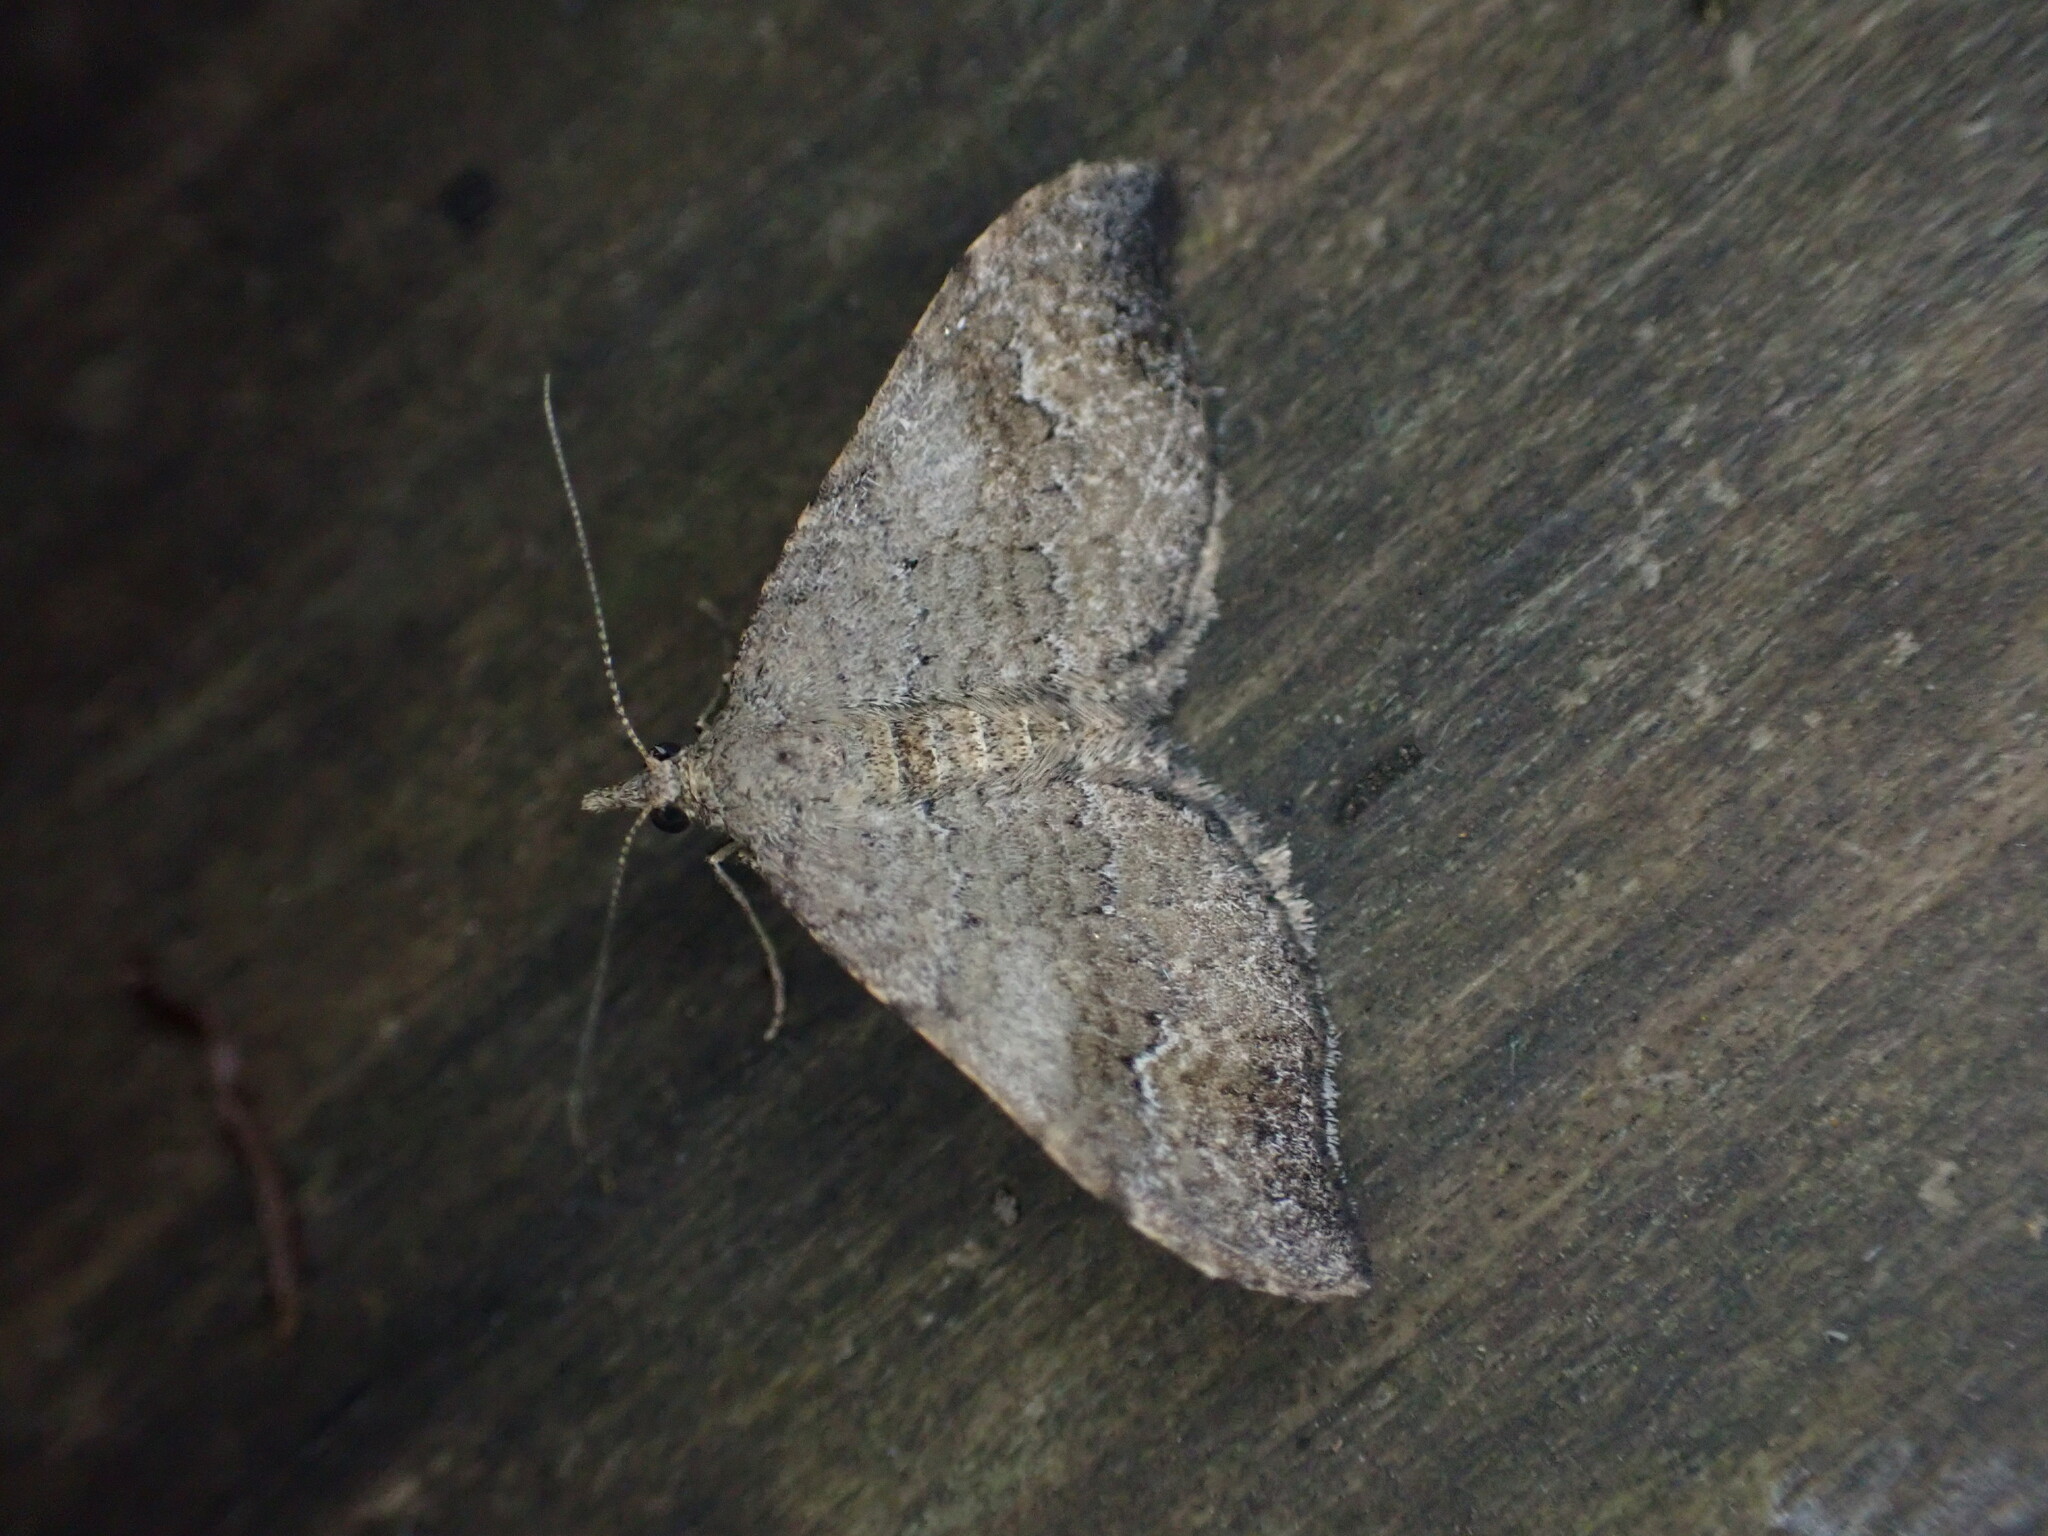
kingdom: Animalia
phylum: Arthropoda
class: Insecta
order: Lepidoptera
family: Geometridae
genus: Homodotis
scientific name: Homodotis megaspilata
